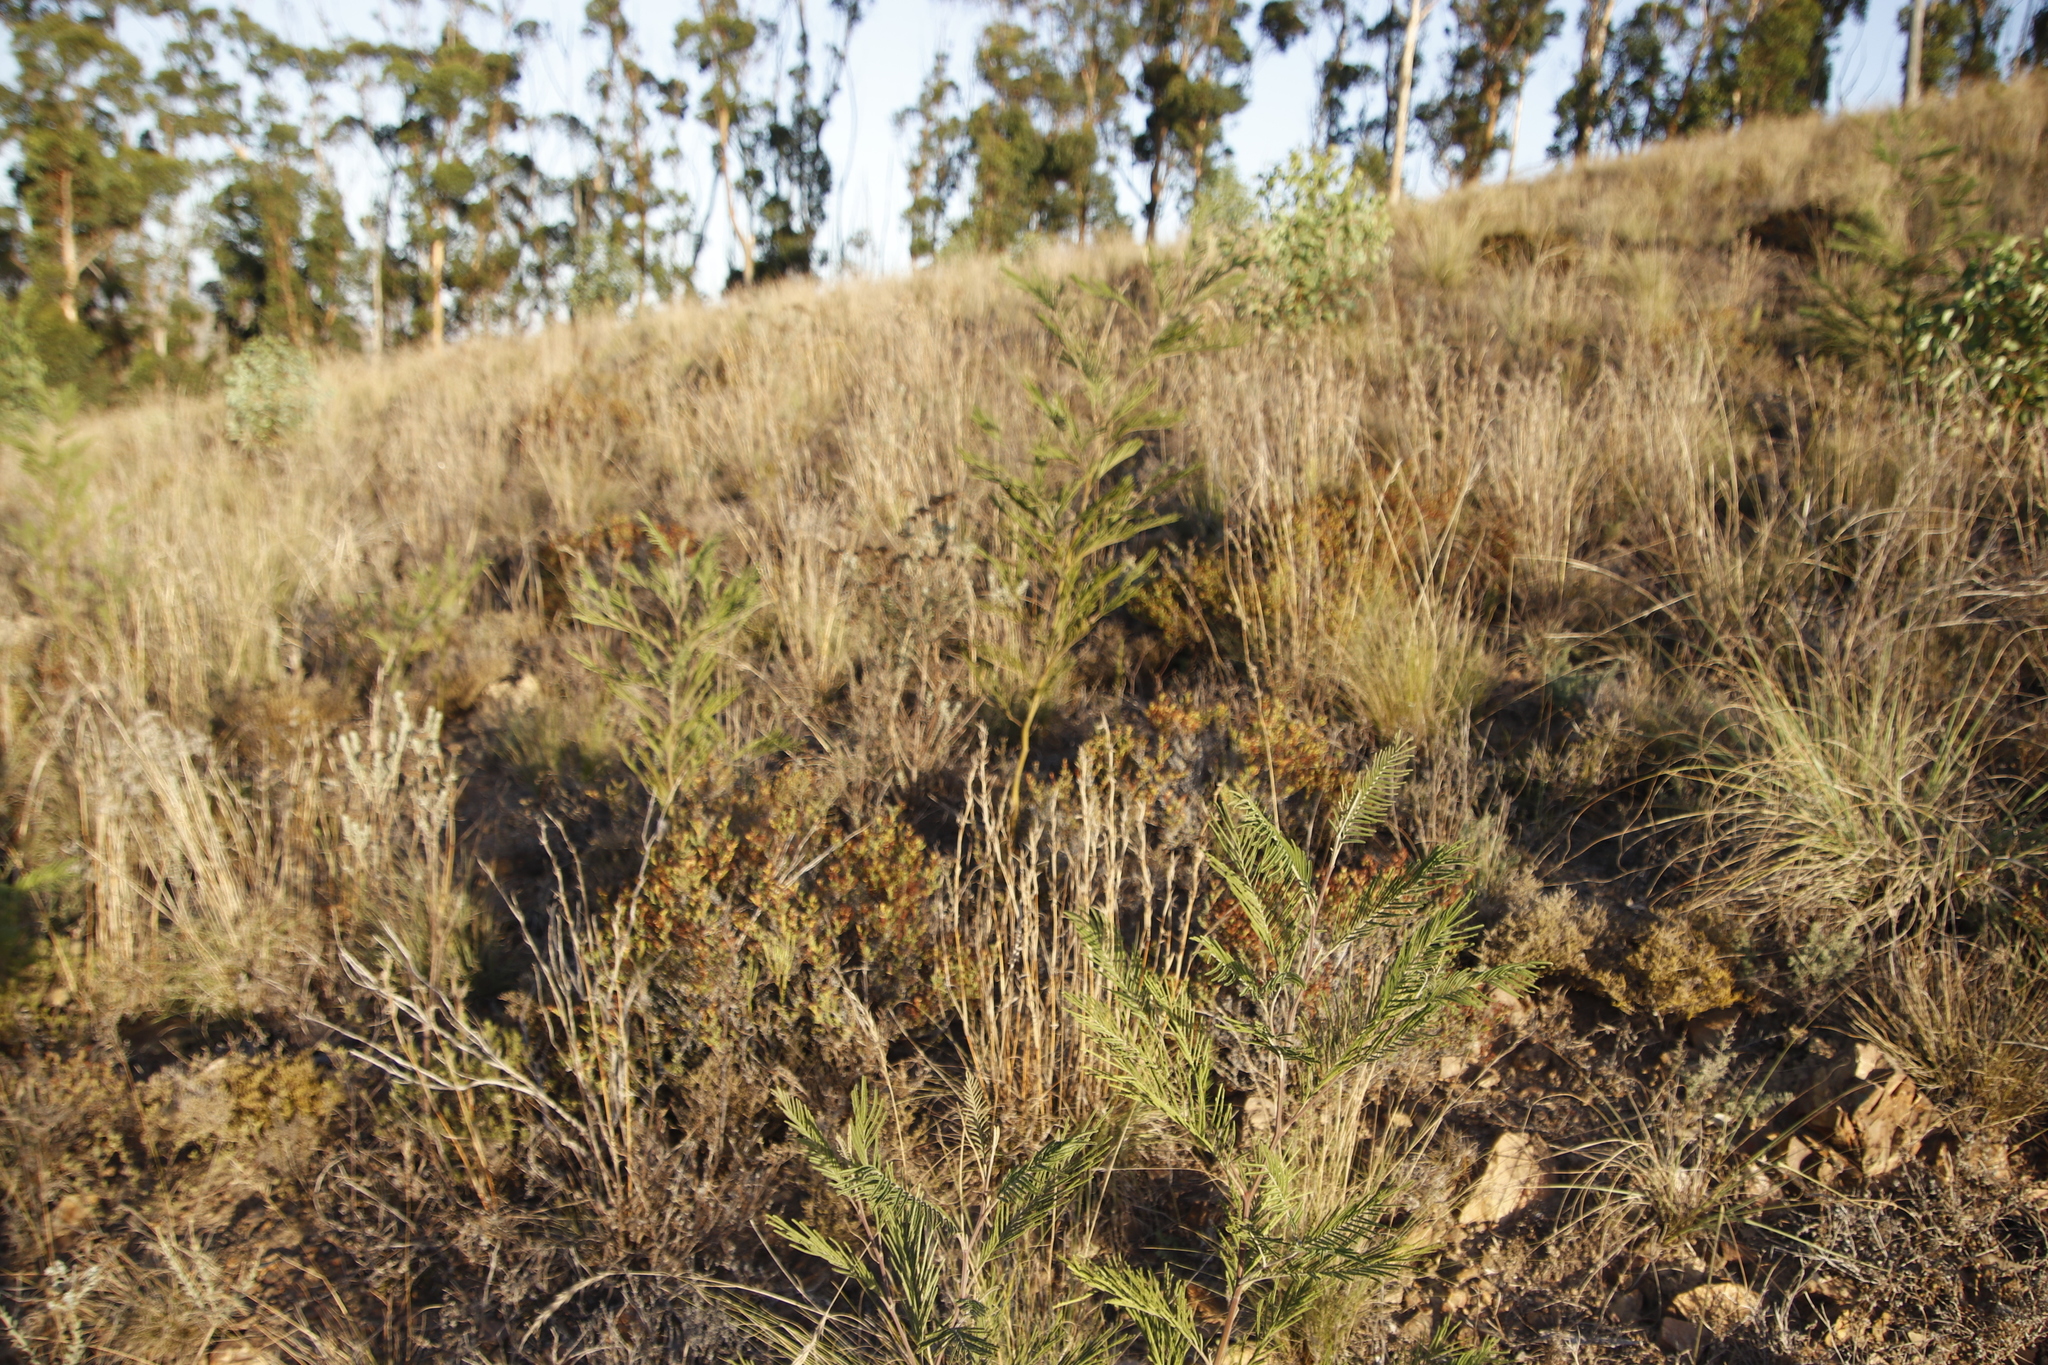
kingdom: Plantae
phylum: Tracheophyta
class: Magnoliopsida
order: Fabales
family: Fabaceae
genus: Acacia
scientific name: Acacia mearnsii
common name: Black wattle
